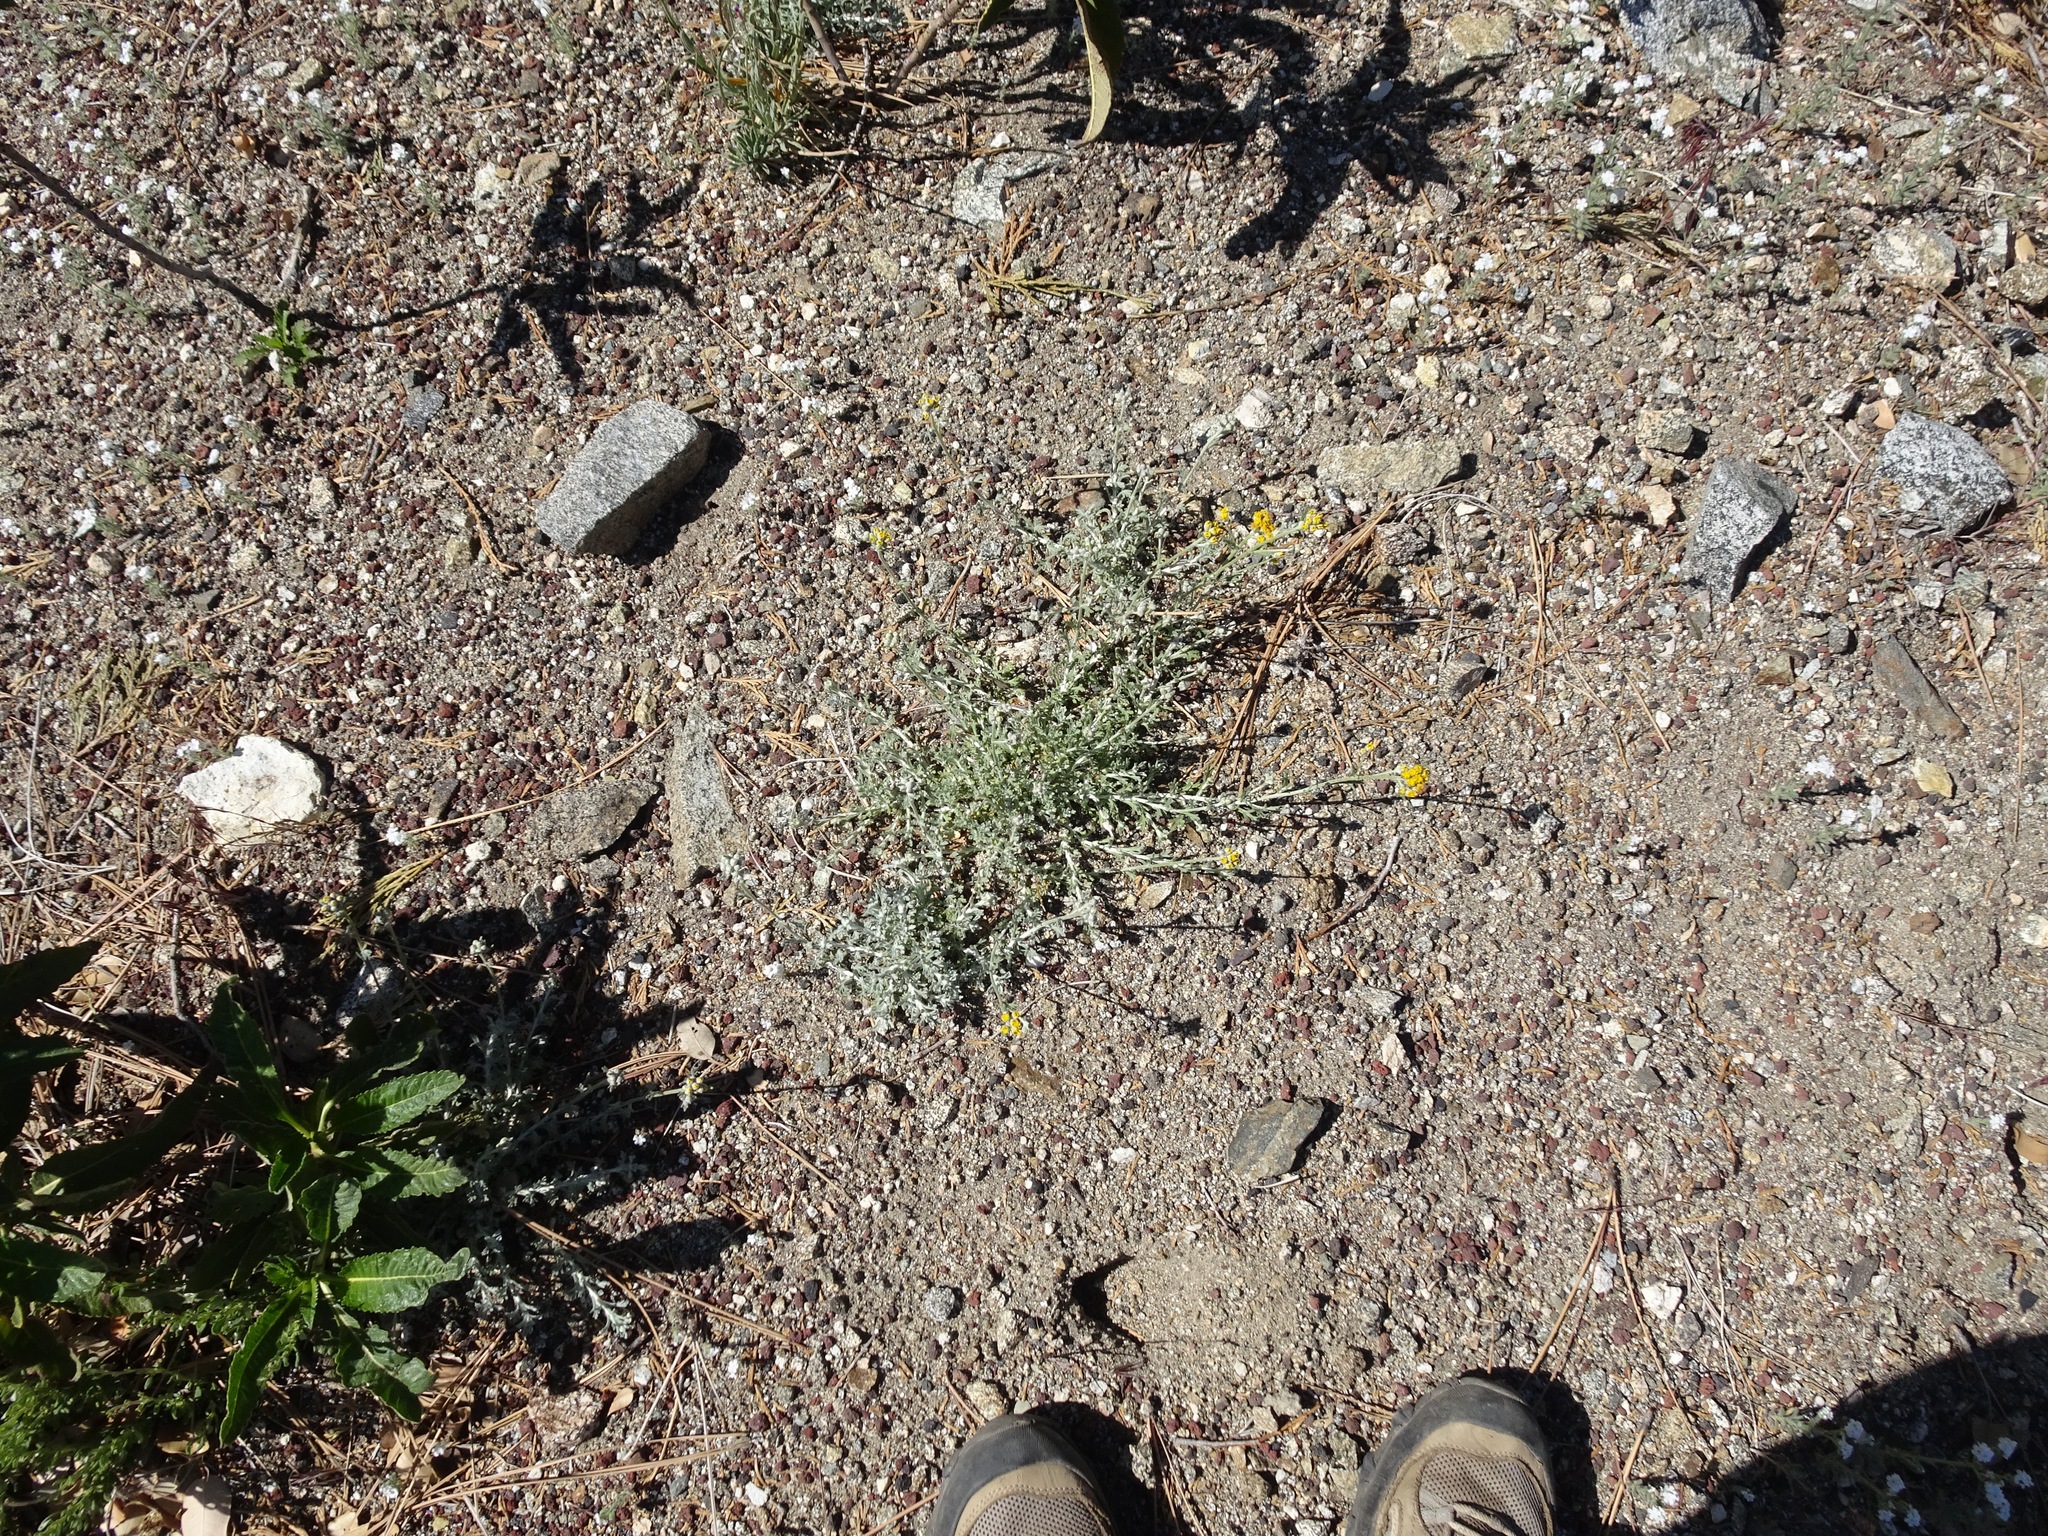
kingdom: Plantae
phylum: Tracheophyta
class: Magnoliopsida
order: Asterales
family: Asteraceae
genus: Eriophyllum
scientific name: Eriophyllum confertiflorum
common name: Golden-yarrow
